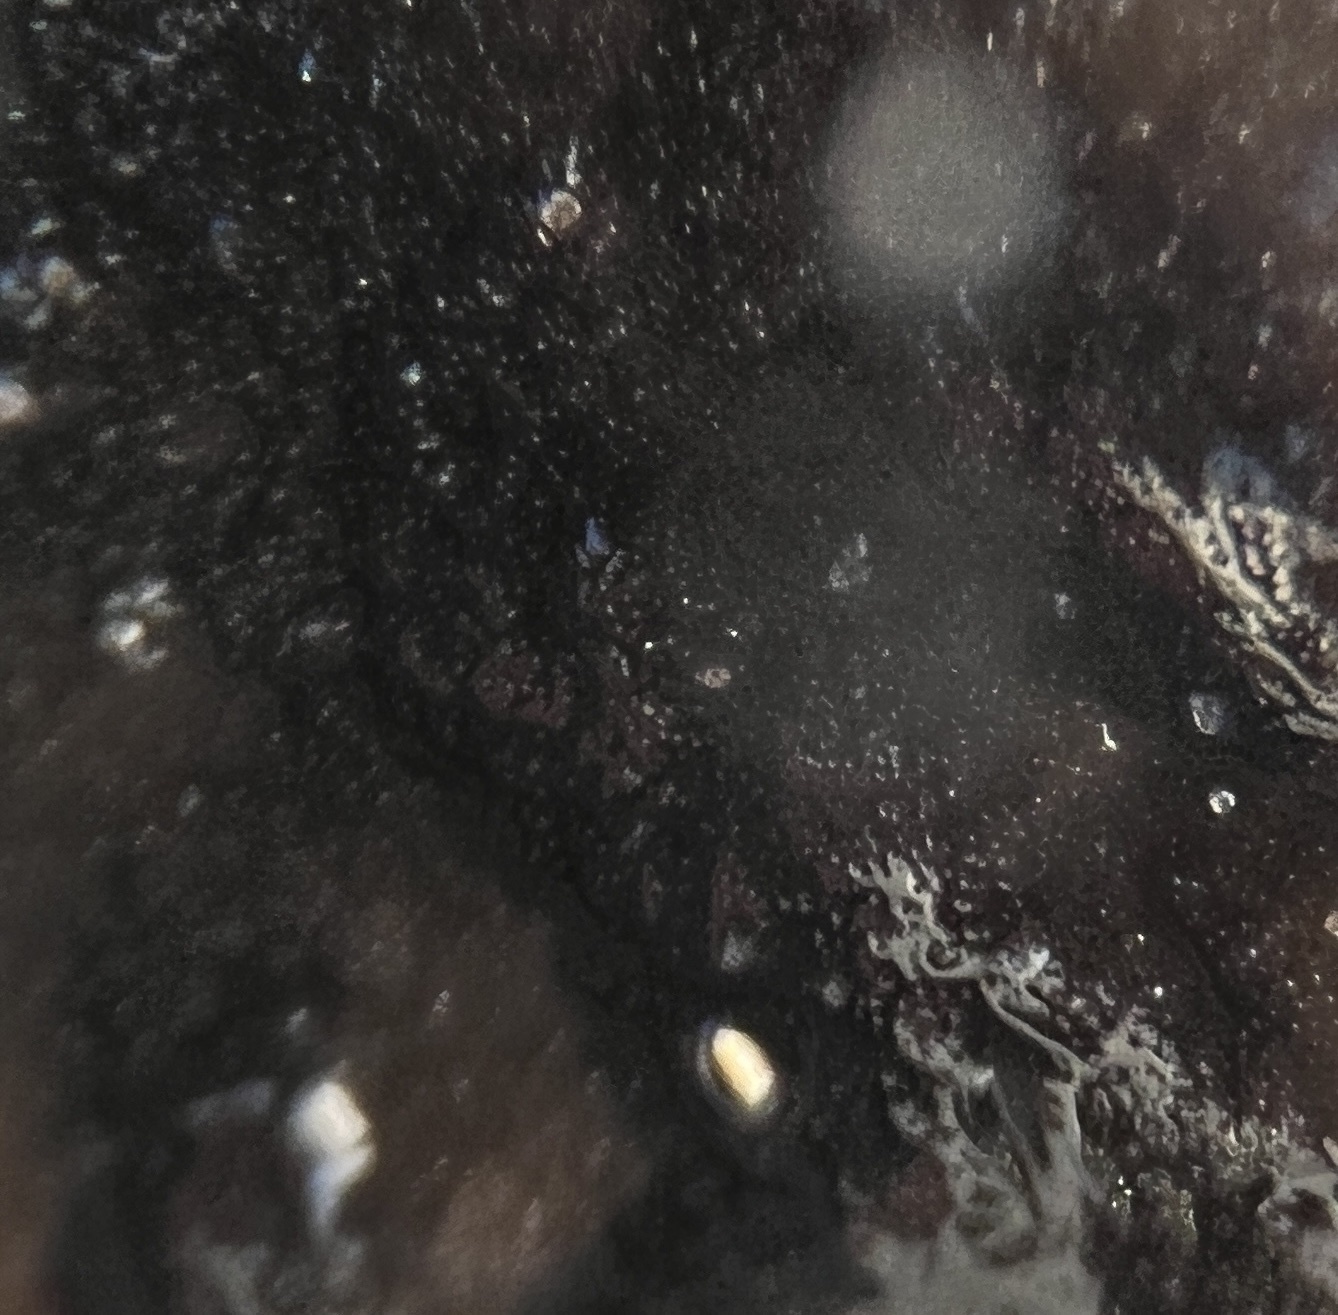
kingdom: Animalia
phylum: Porifera
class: Demospongiae
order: Clionaida
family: Clionaidae
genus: Spheciospongia
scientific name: Spheciospongia vesparium
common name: Manjack
